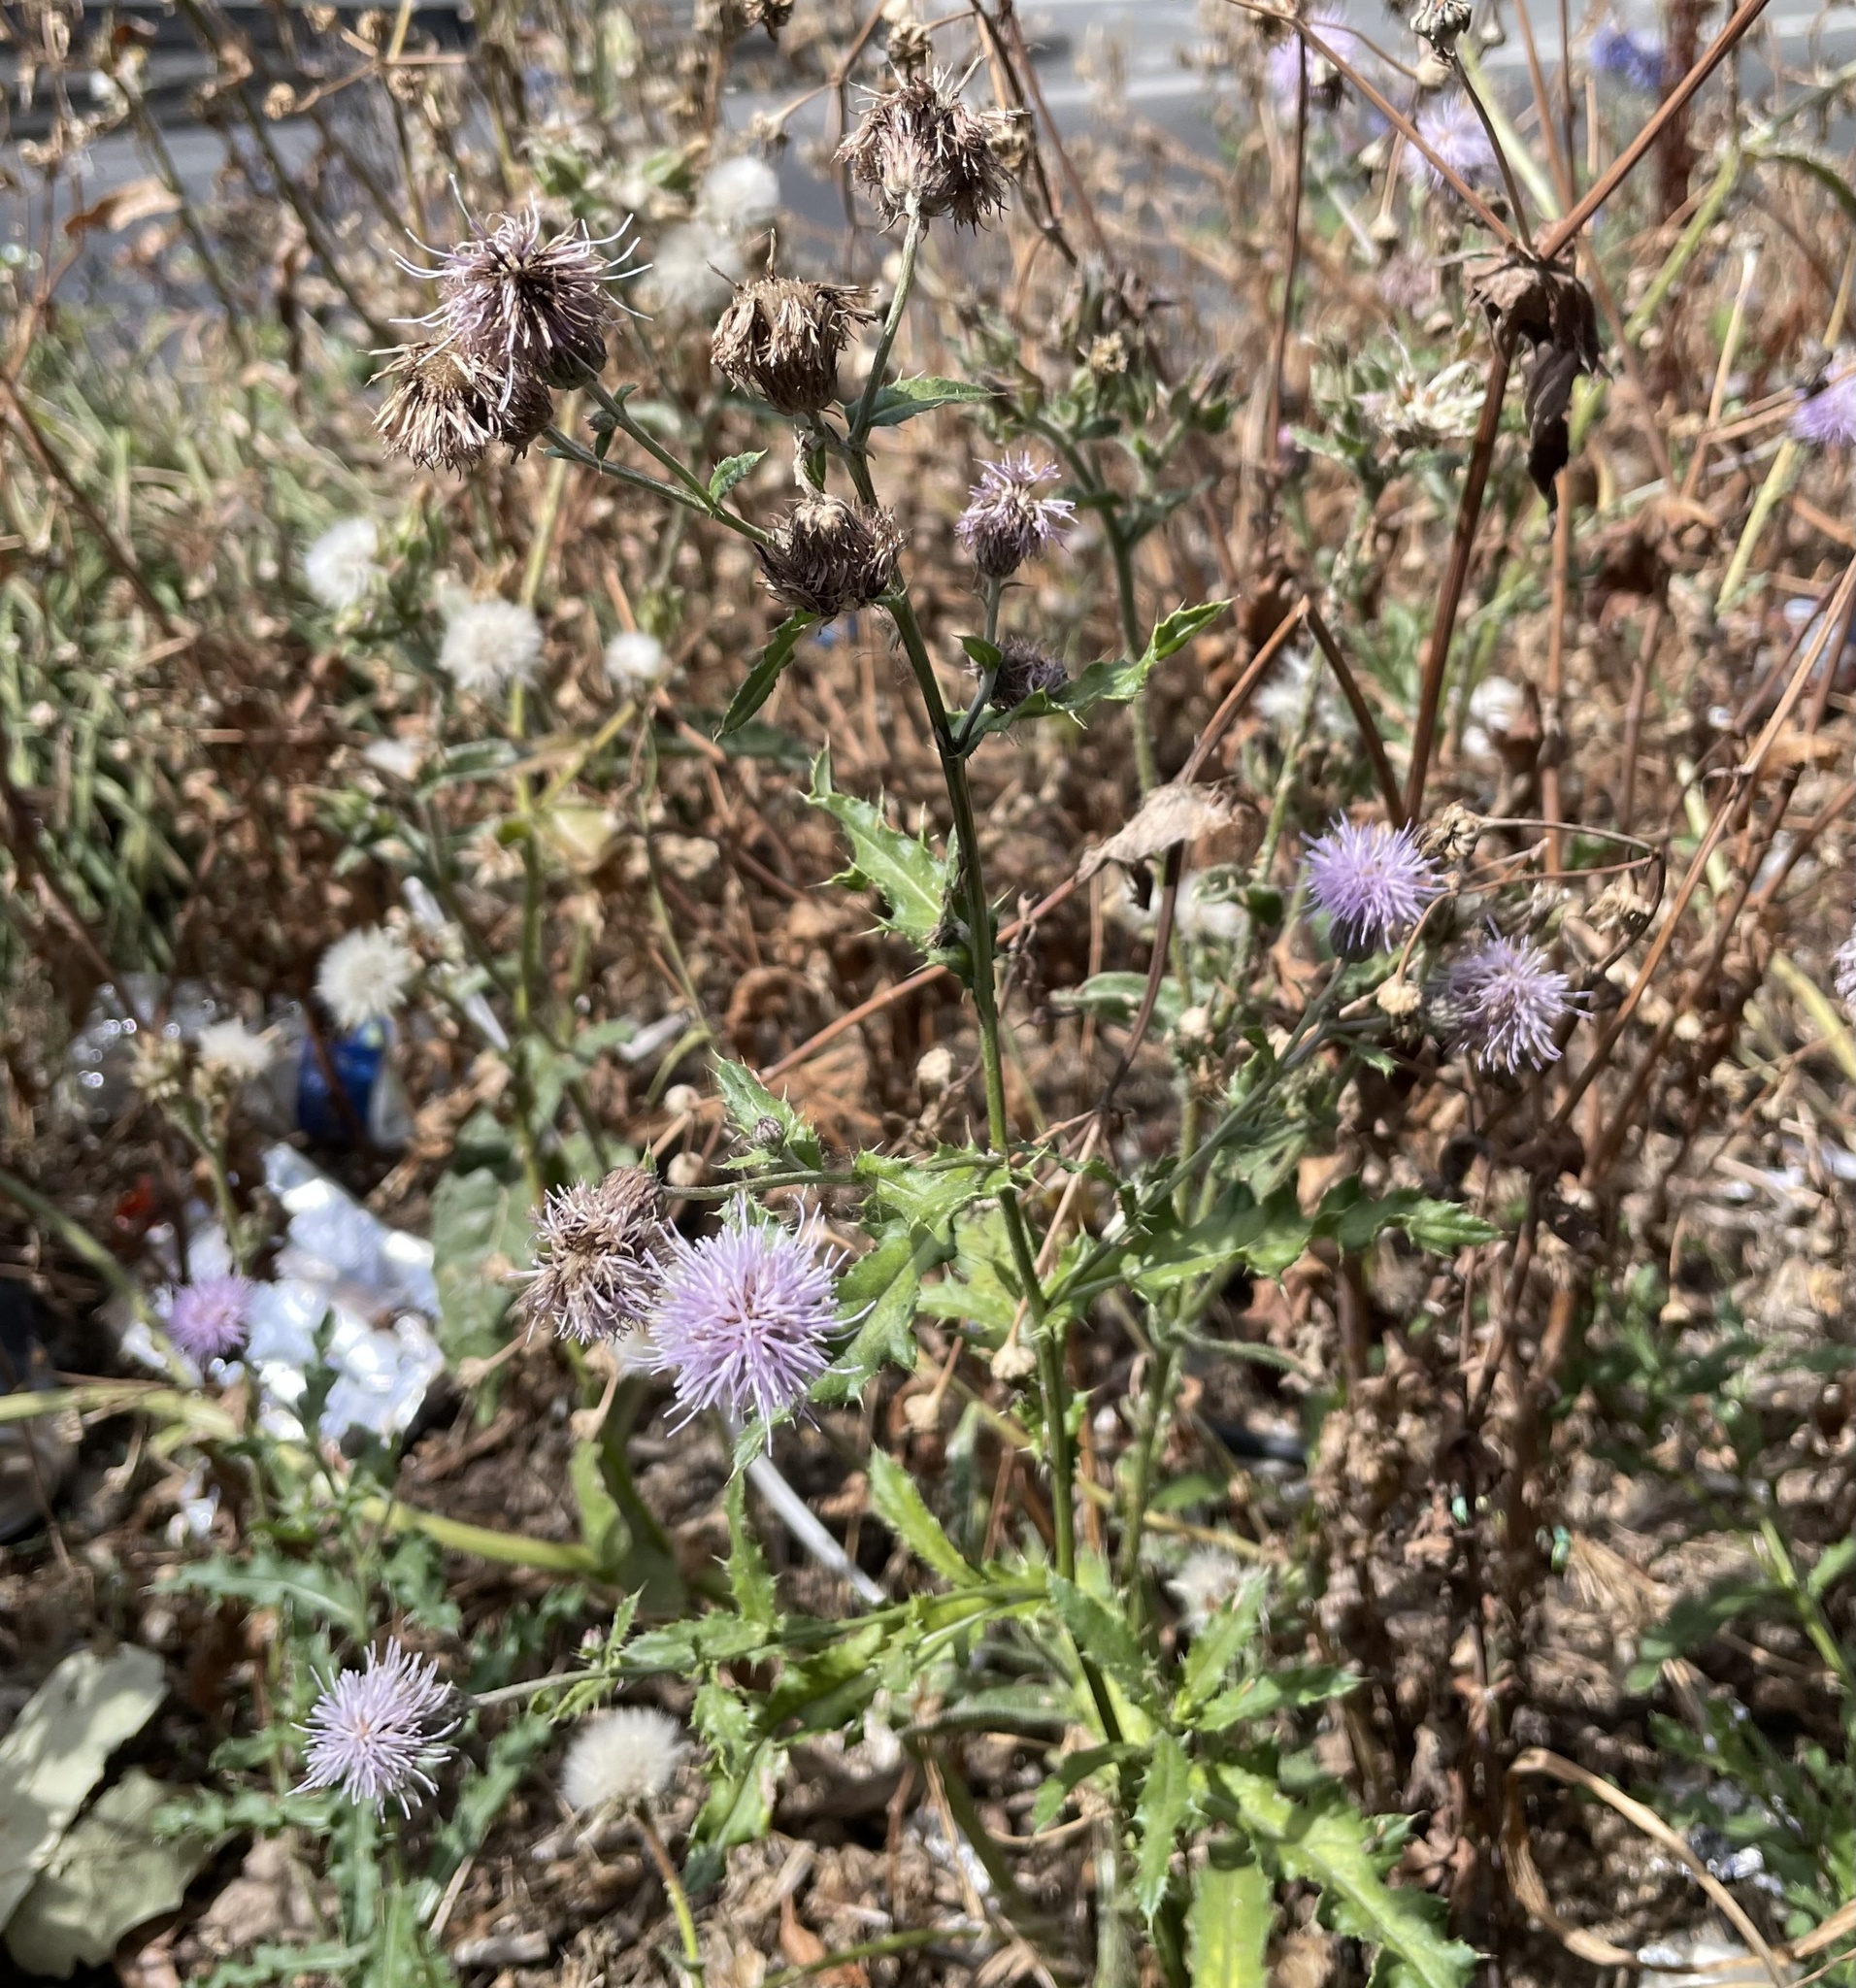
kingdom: Plantae
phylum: Tracheophyta
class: Magnoliopsida
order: Asterales
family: Asteraceae
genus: Cirsium
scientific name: Cirsium arvense
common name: Creeping thistle
